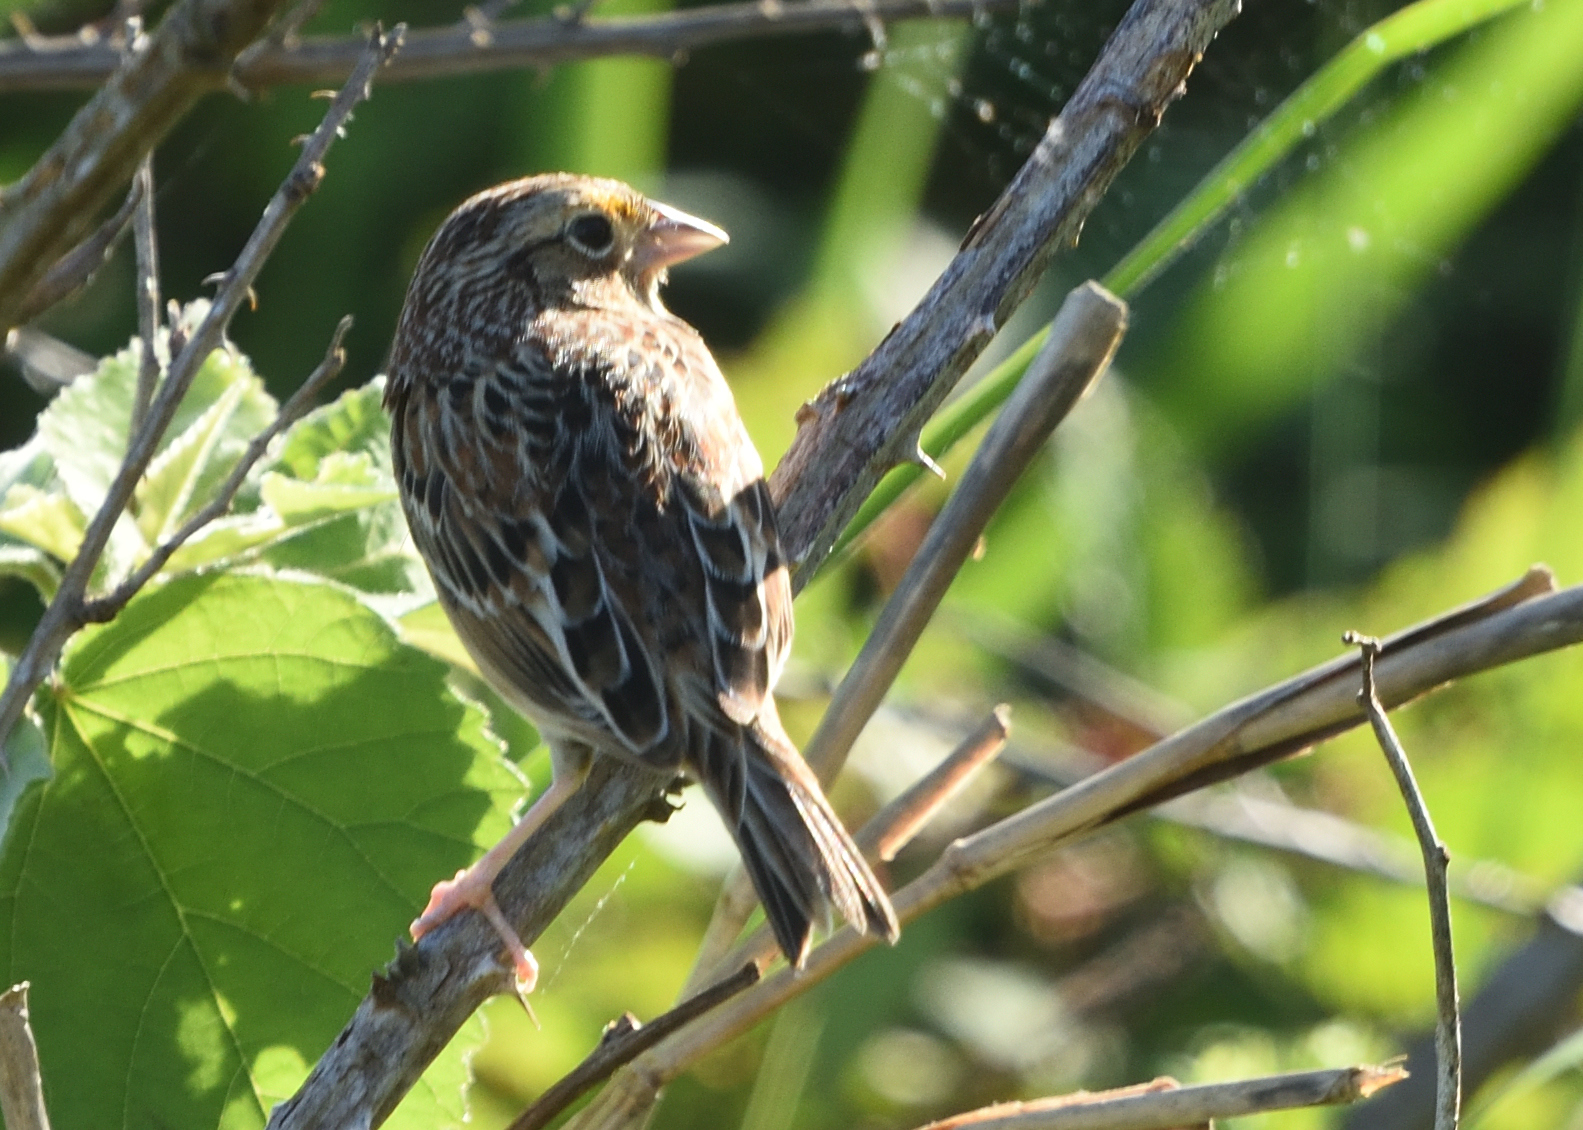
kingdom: Animalia
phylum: Chordata
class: Aves
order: Passeriformes
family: Passerellidae
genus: Ammodramus
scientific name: Ammodramus savannarum
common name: Grasshopper sparrow
